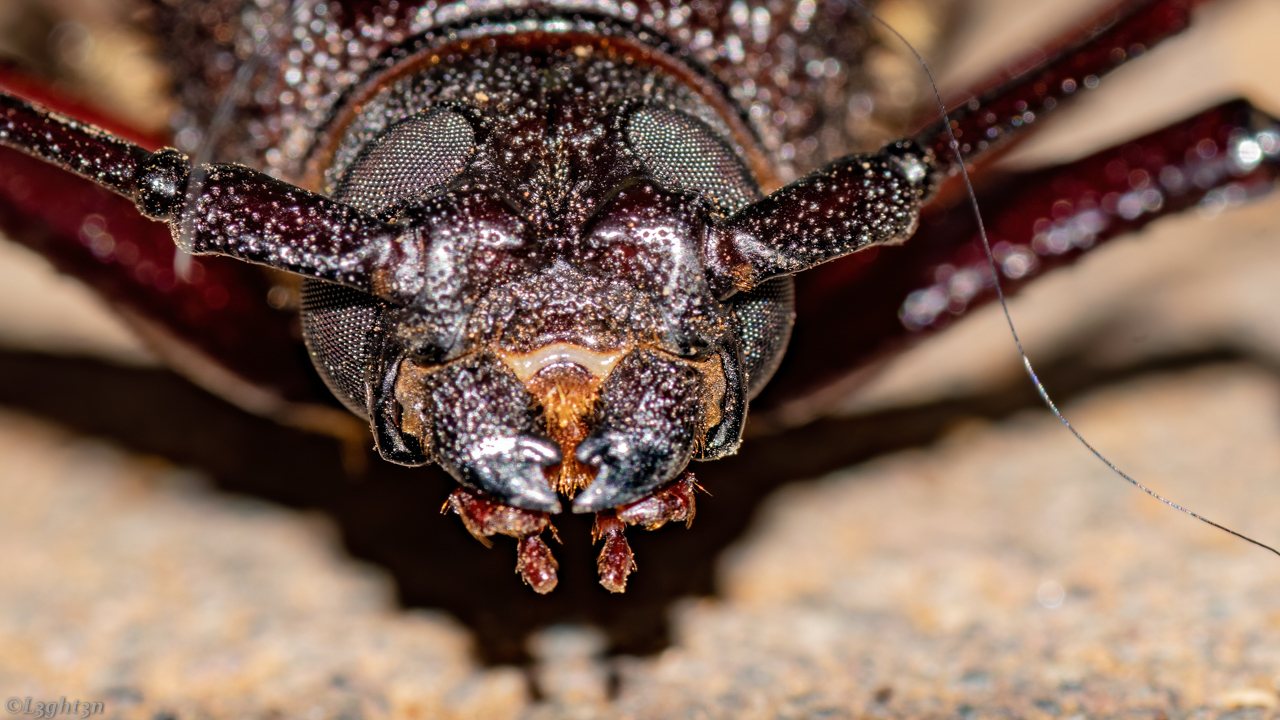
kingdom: Animalia
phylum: Arthropoda
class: Insecta
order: Coleoptera
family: Cerambycidae
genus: Macrotoma
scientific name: Macrotoma palmata
